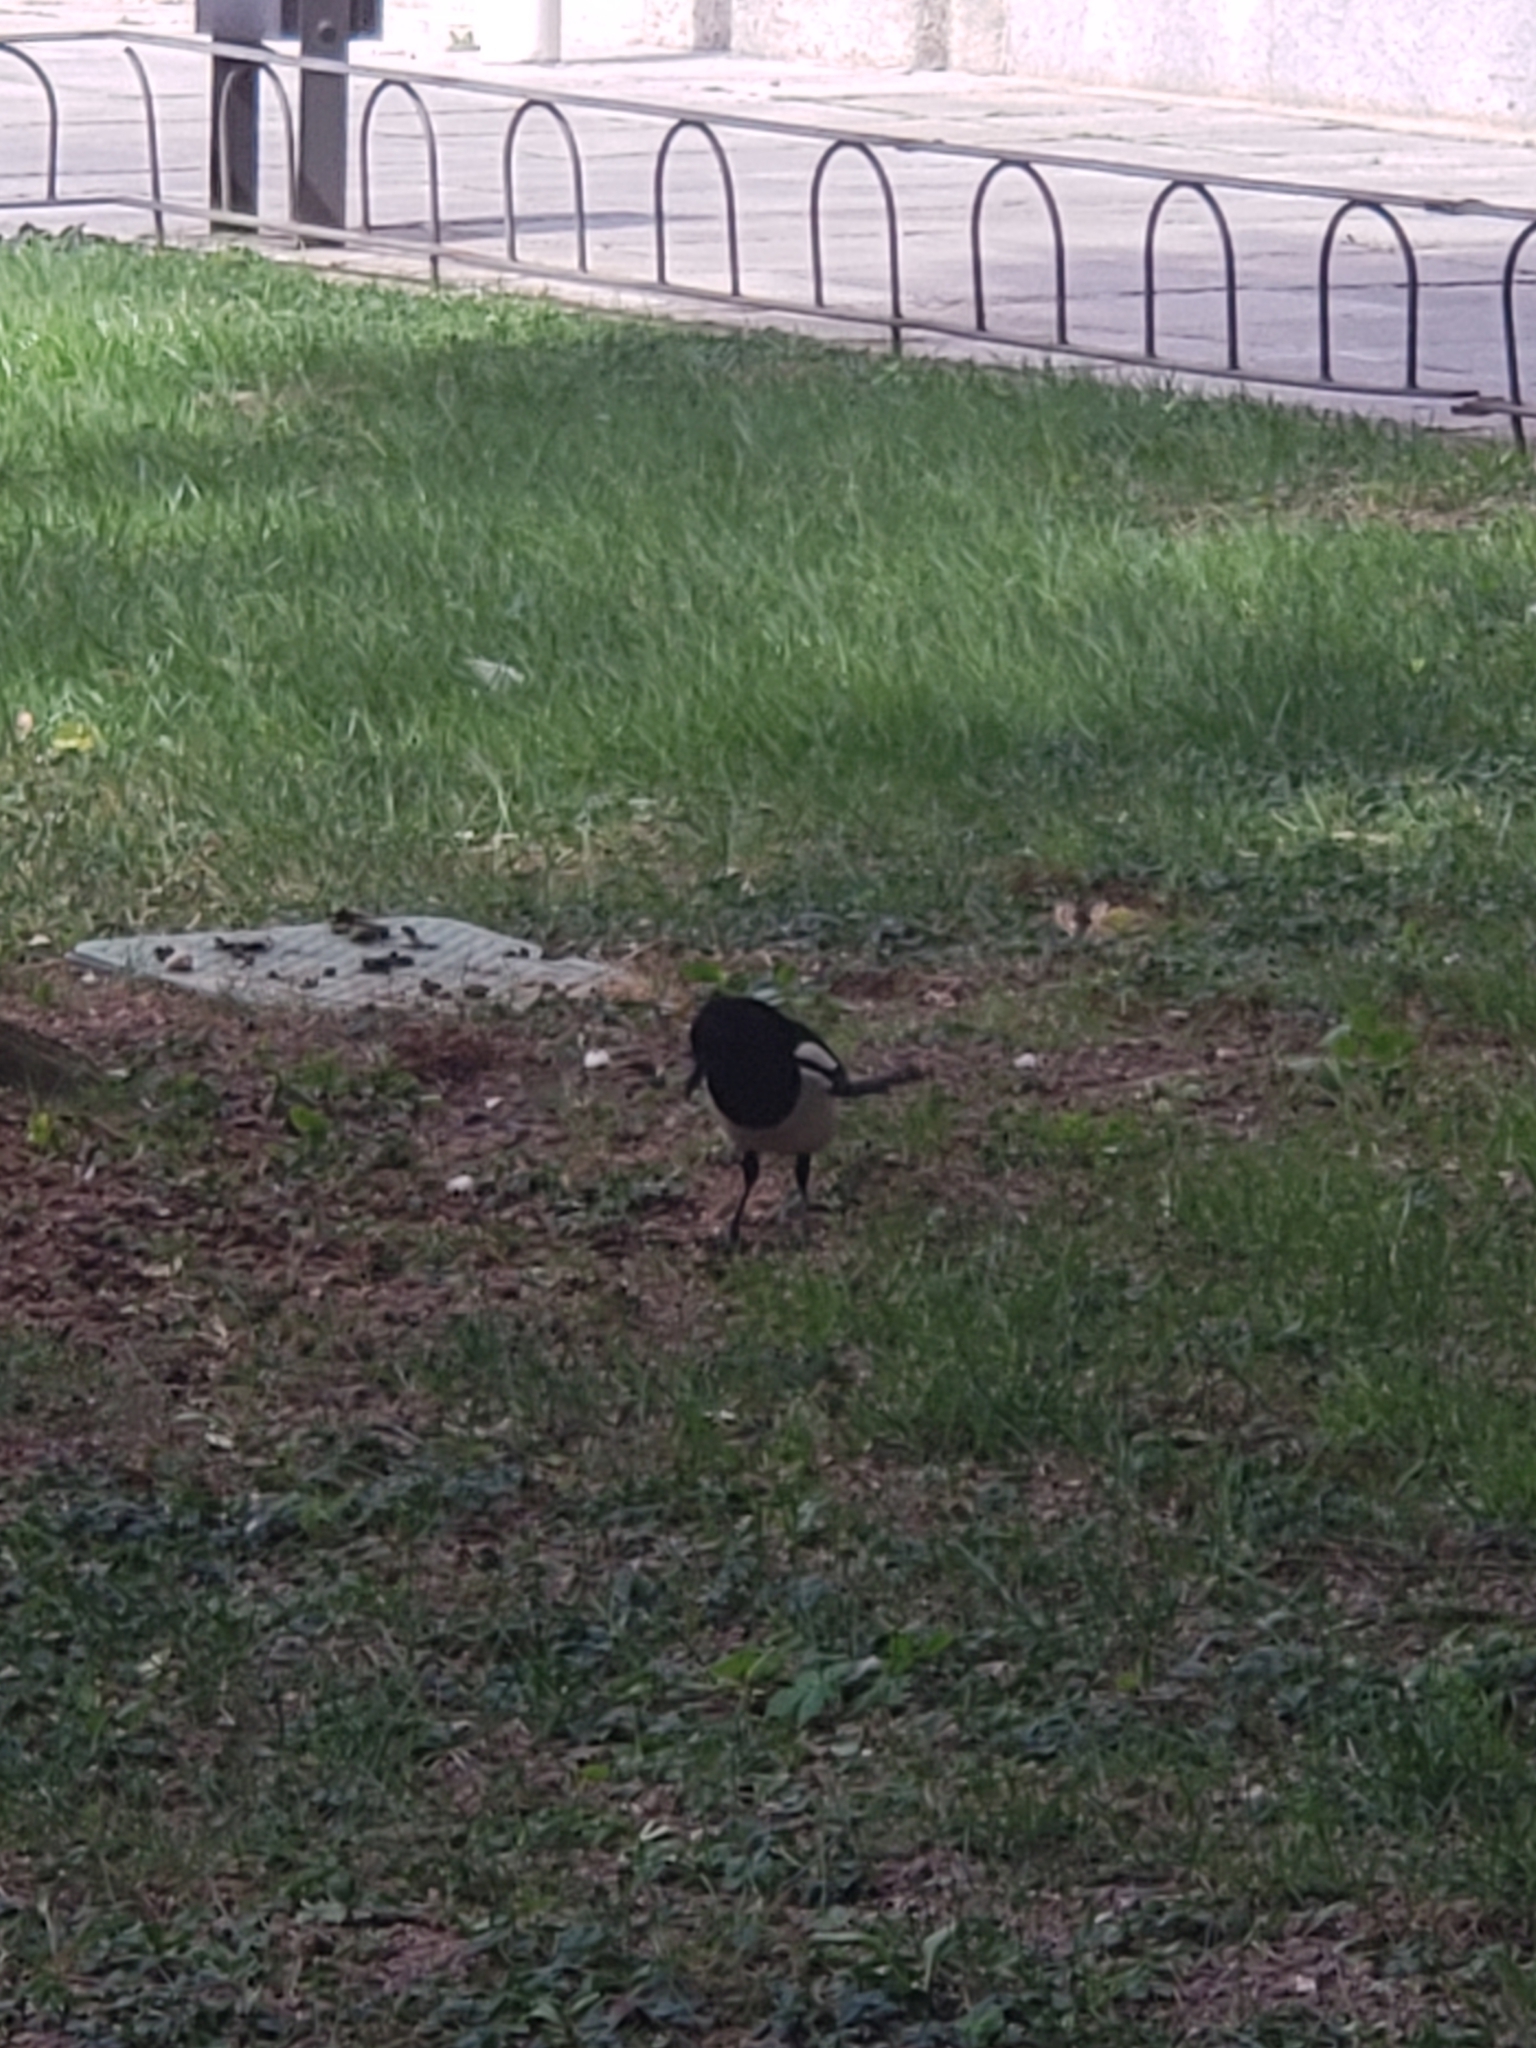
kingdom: Animalia
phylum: Chordata
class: Aves
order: Passeriformes
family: Corvidae
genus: Pica
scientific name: Pica pica
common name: Eurasian magpie
